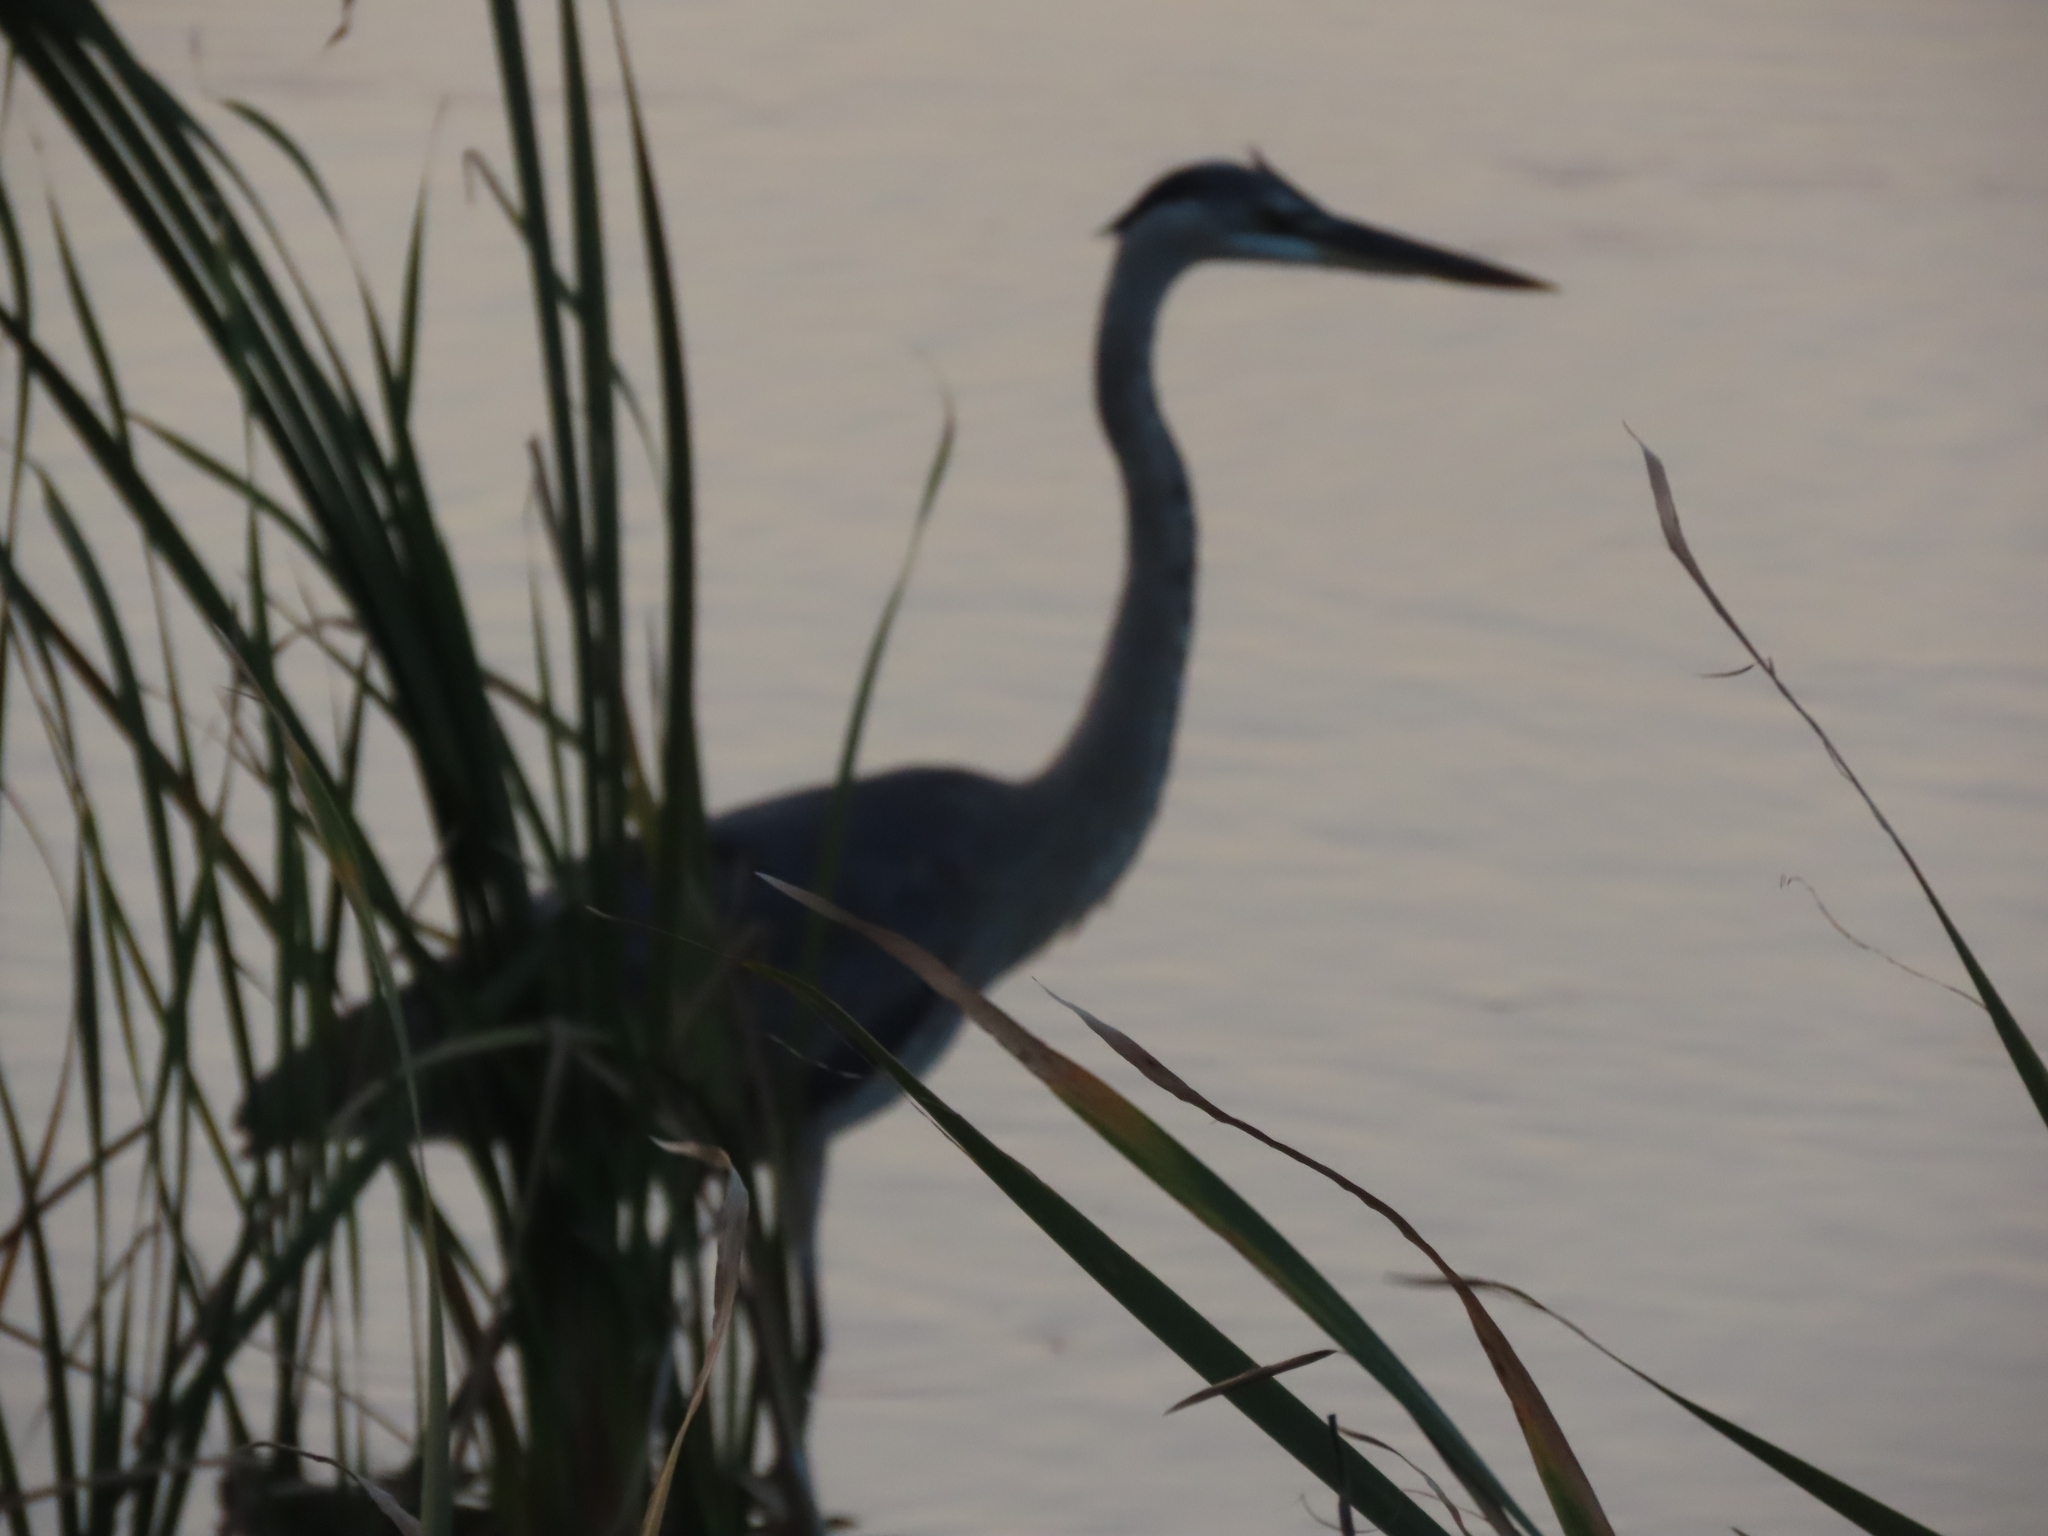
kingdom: Animalia
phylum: Chordata
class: Aves
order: Pelecaniformes
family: Ardeidae
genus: Ardea
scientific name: Ardea herodias
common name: Great blue heron
